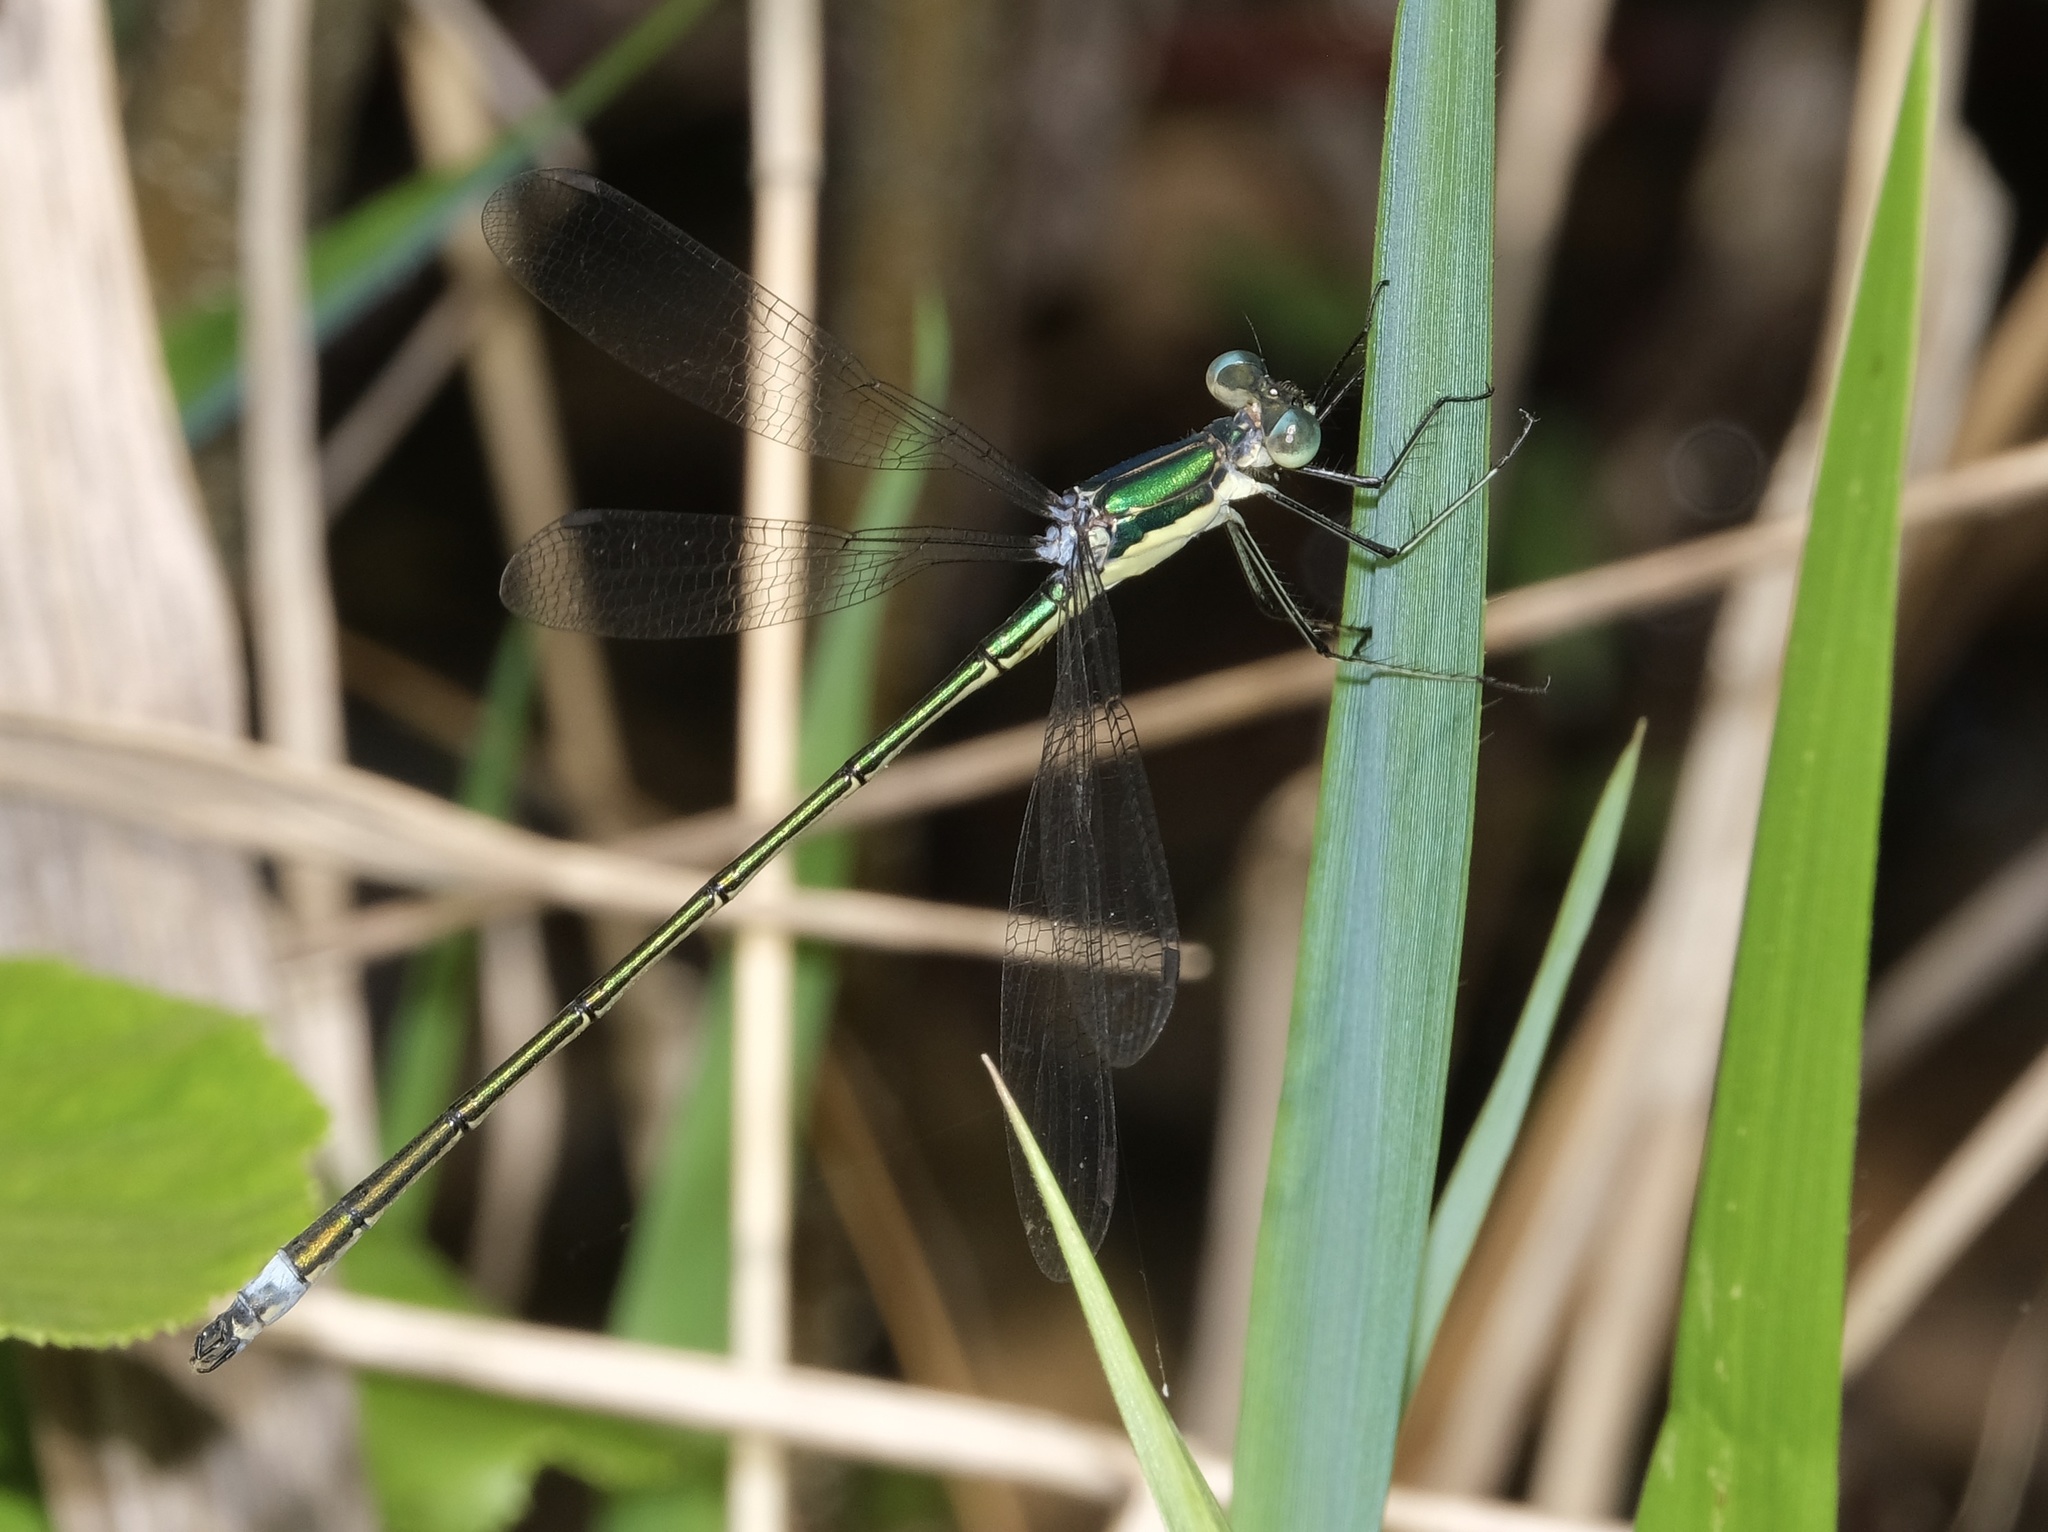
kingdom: Animalia
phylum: Arthropoda
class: Insecta
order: Odonata
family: Lestidae
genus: Lestes
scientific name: Lestes inaequalis
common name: Elegant spreadwing
